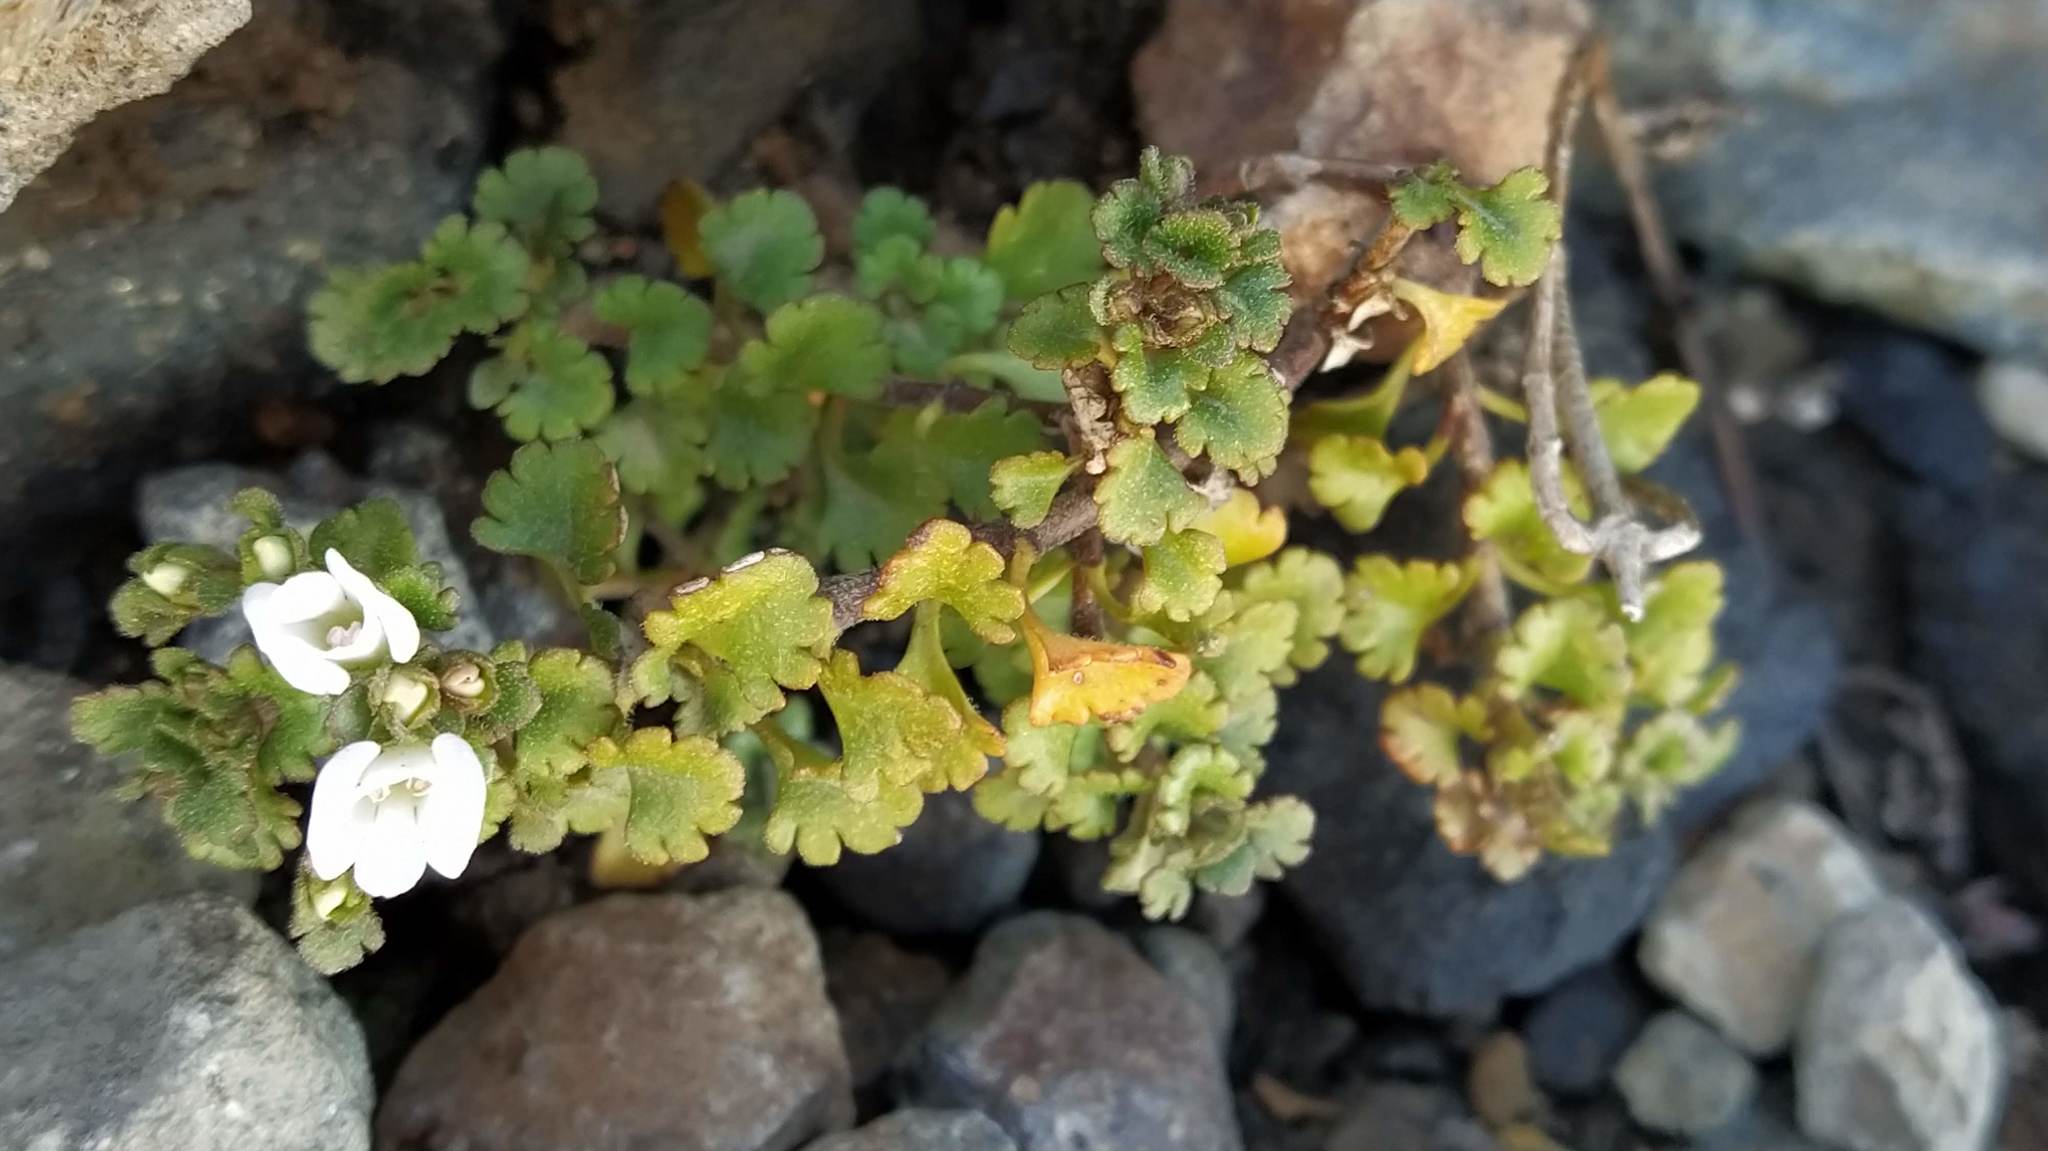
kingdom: Plantae
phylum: Tracheophyta
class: Magnoliopsida
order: Lamiales
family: Plantaginaceae
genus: Veronica
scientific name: Veronica spathulata
